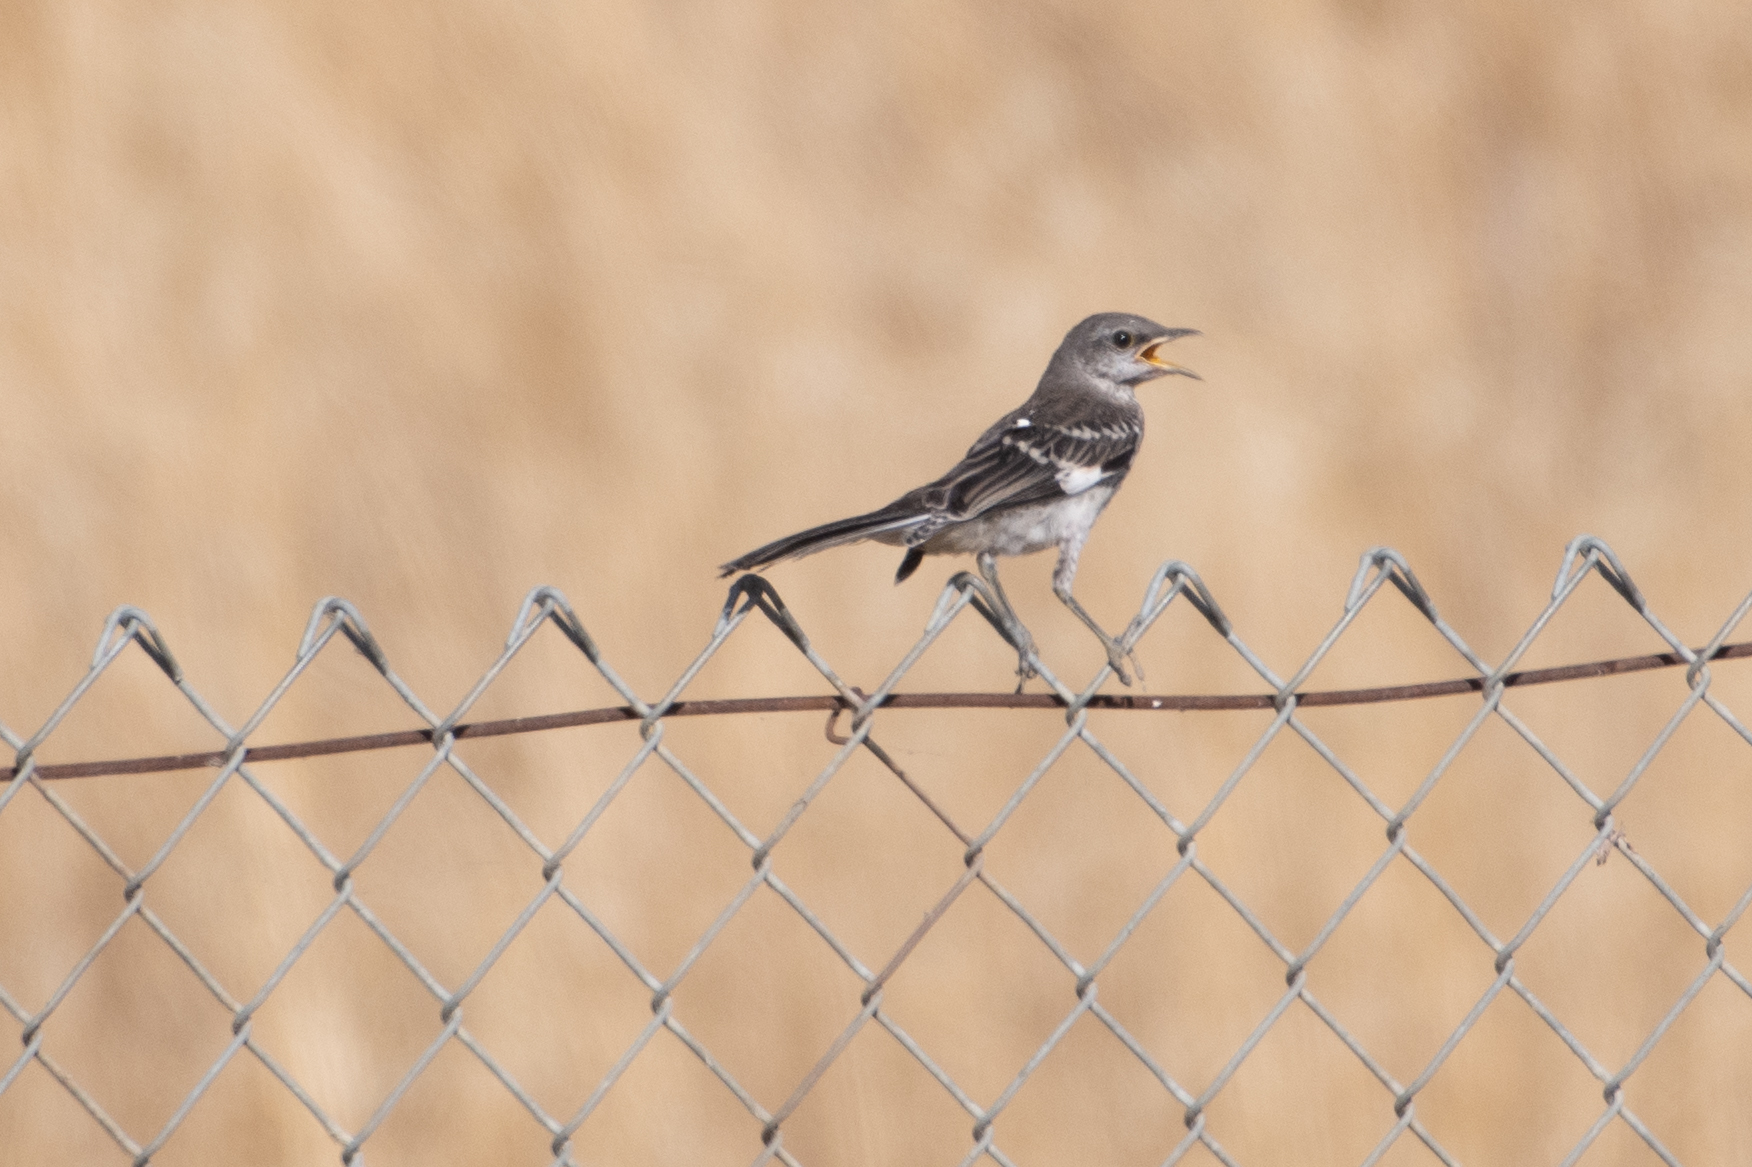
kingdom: Animalia
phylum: Chordata
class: Aves
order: Passeriformes
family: Mimidae
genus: Mimus
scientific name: Mimus polyglottos
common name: Northern mockingbird
